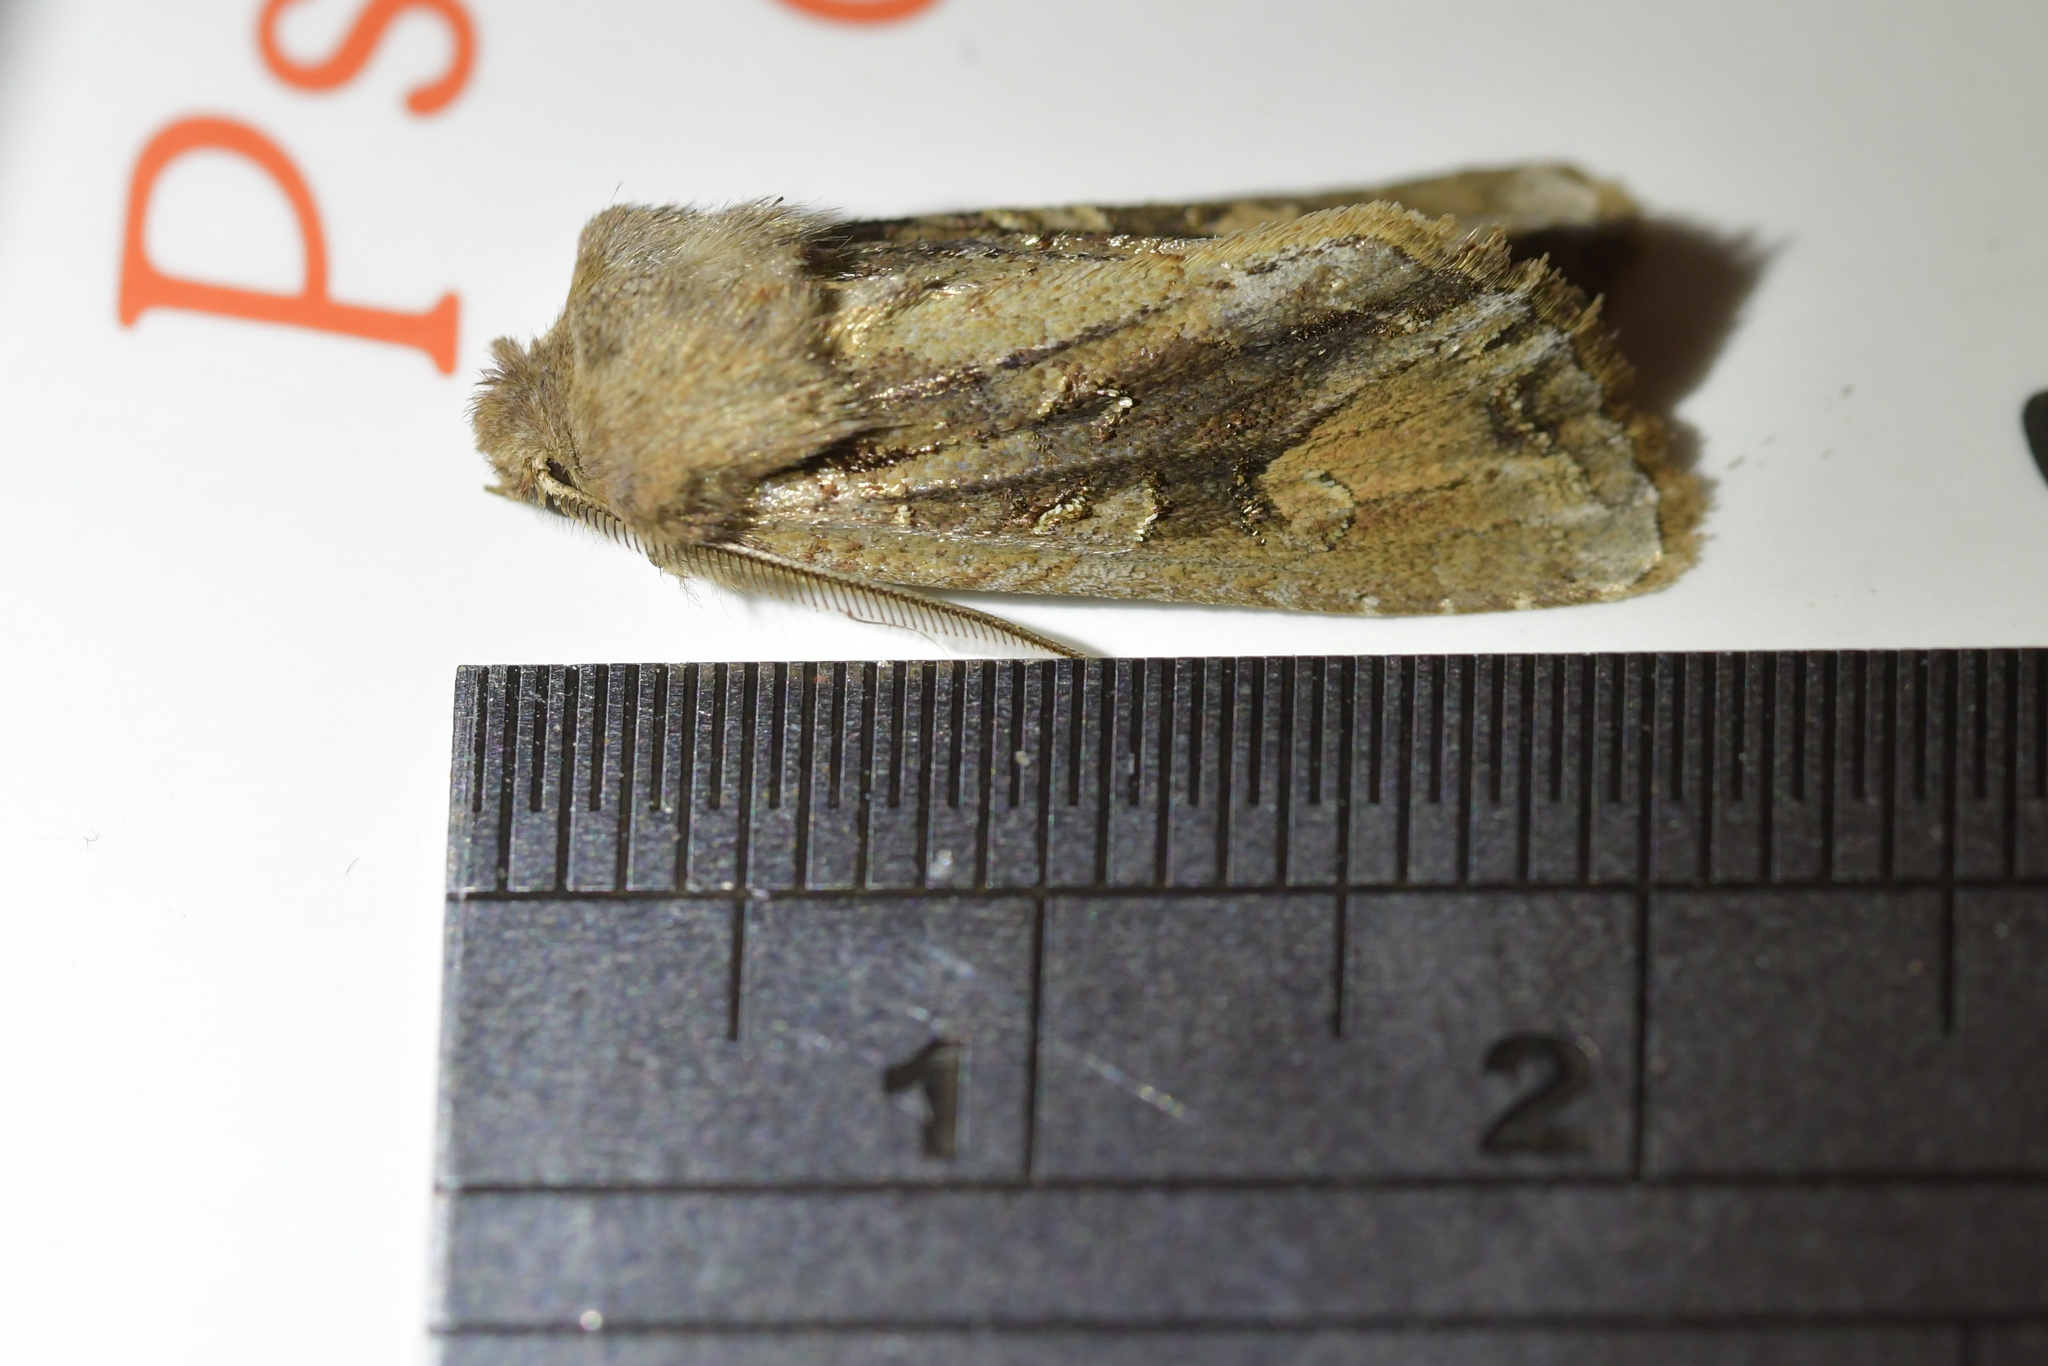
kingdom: Animalia
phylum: Arthropoda
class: Insecta
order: Lepidoptera
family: Noctuidae
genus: Ichneutica
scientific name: Ichneutica
